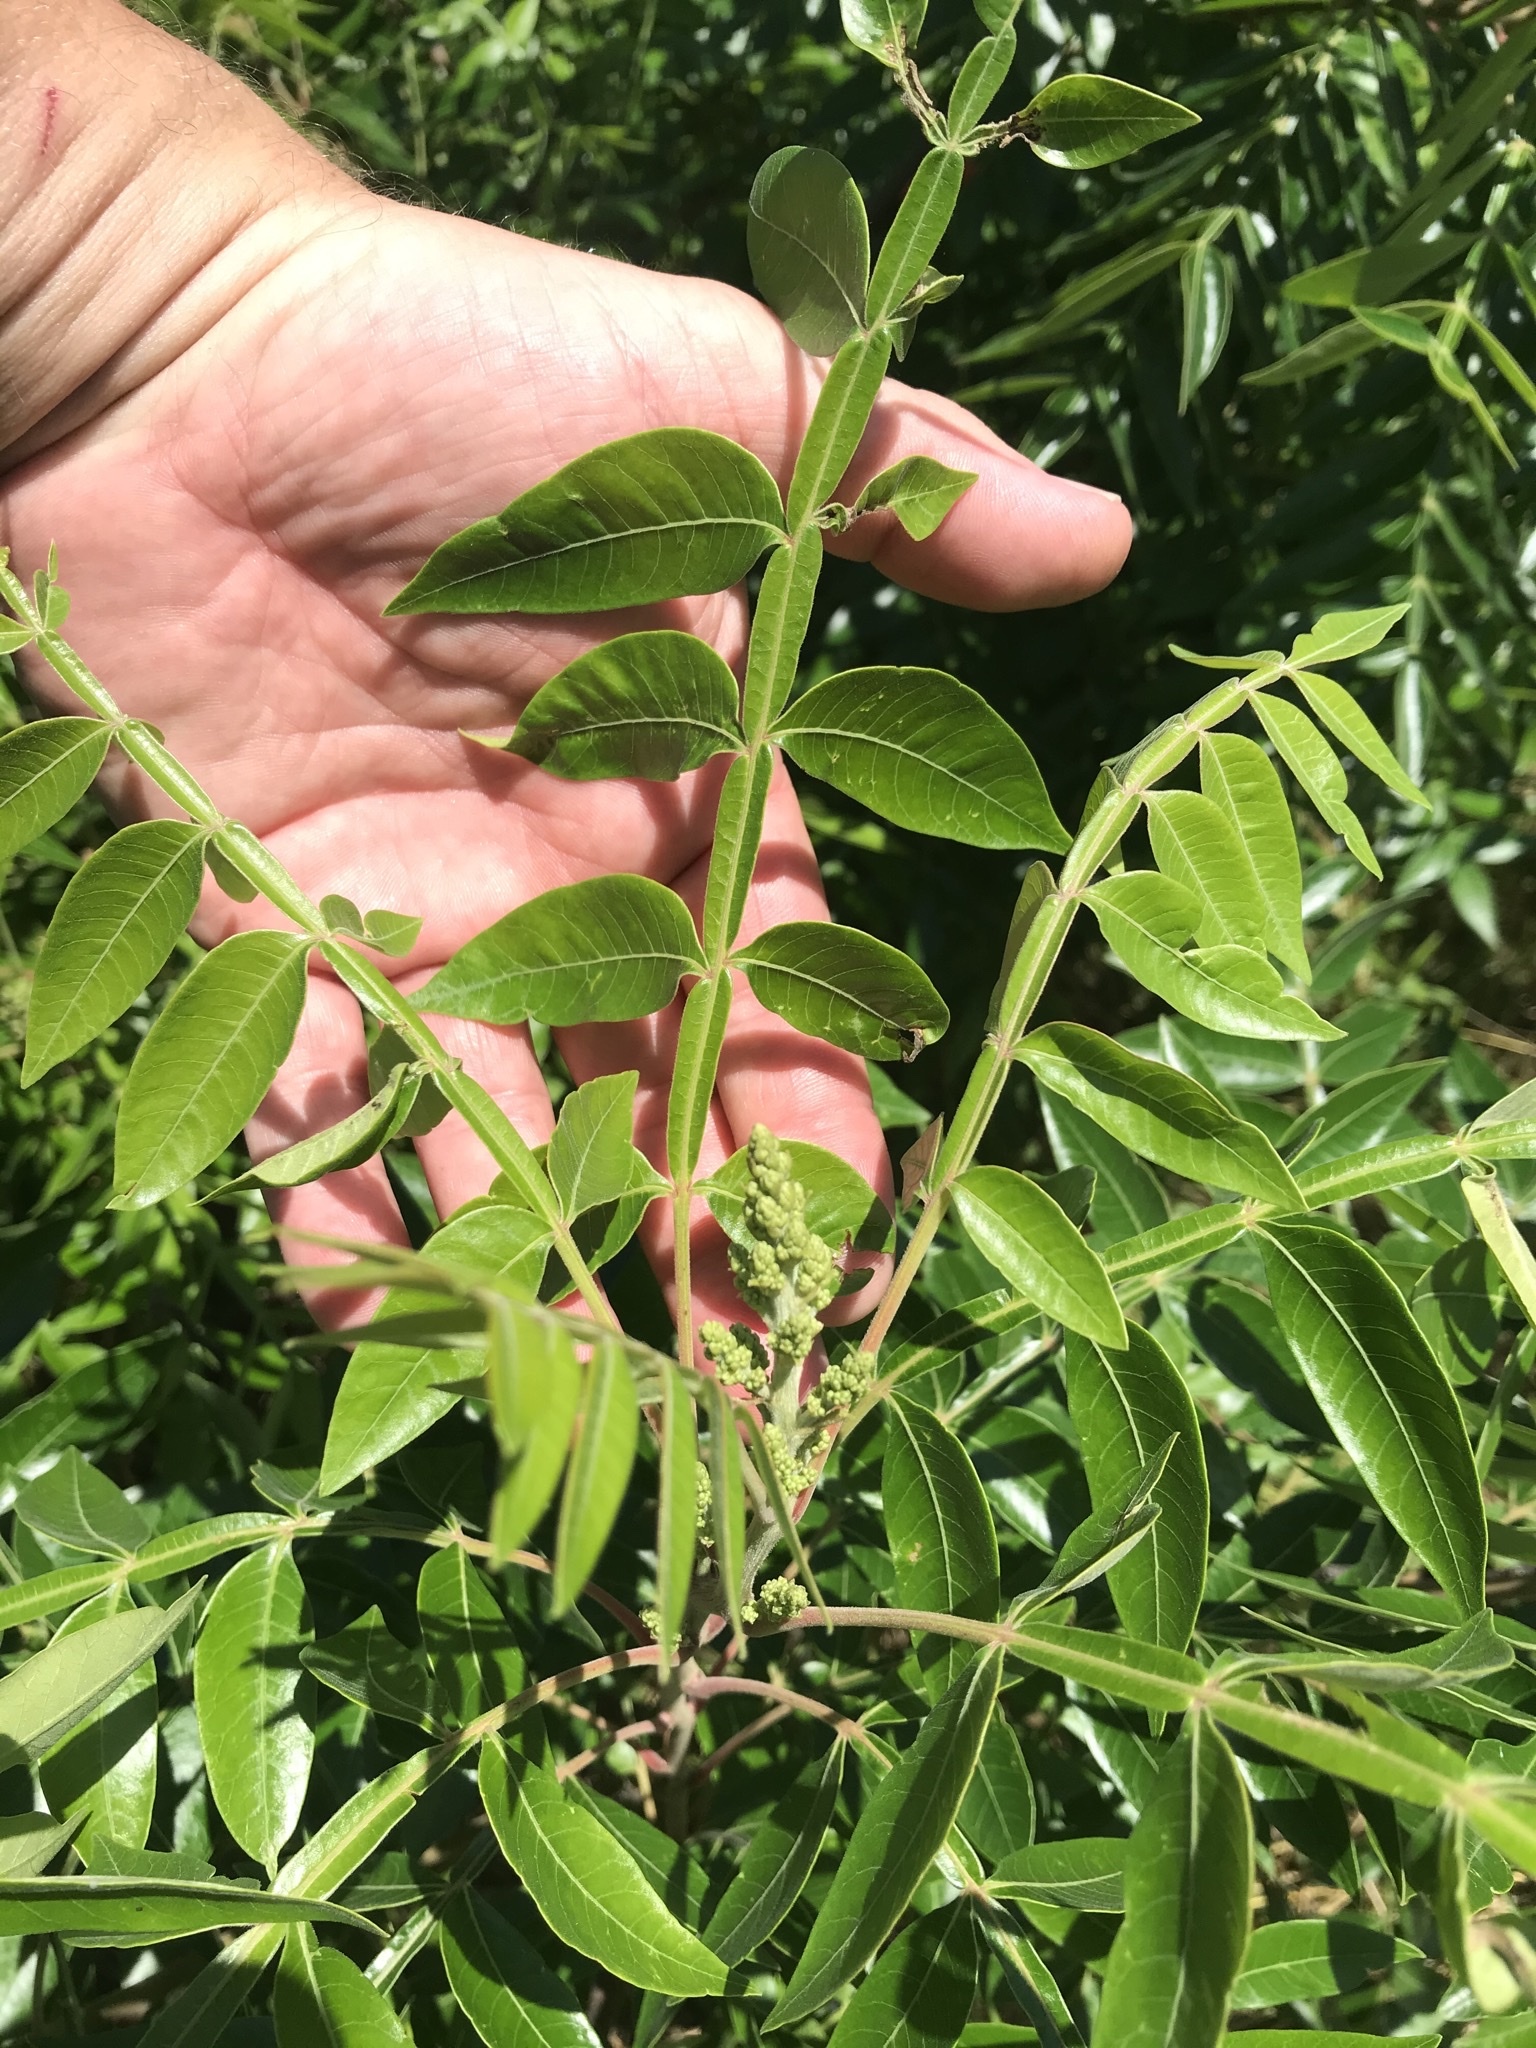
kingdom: Plantae
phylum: Tracheophyta
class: Magnoliopsida
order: Sapindales
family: Anacardiaceae
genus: Rhus
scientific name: Rhus copallina
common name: Shining sumac
